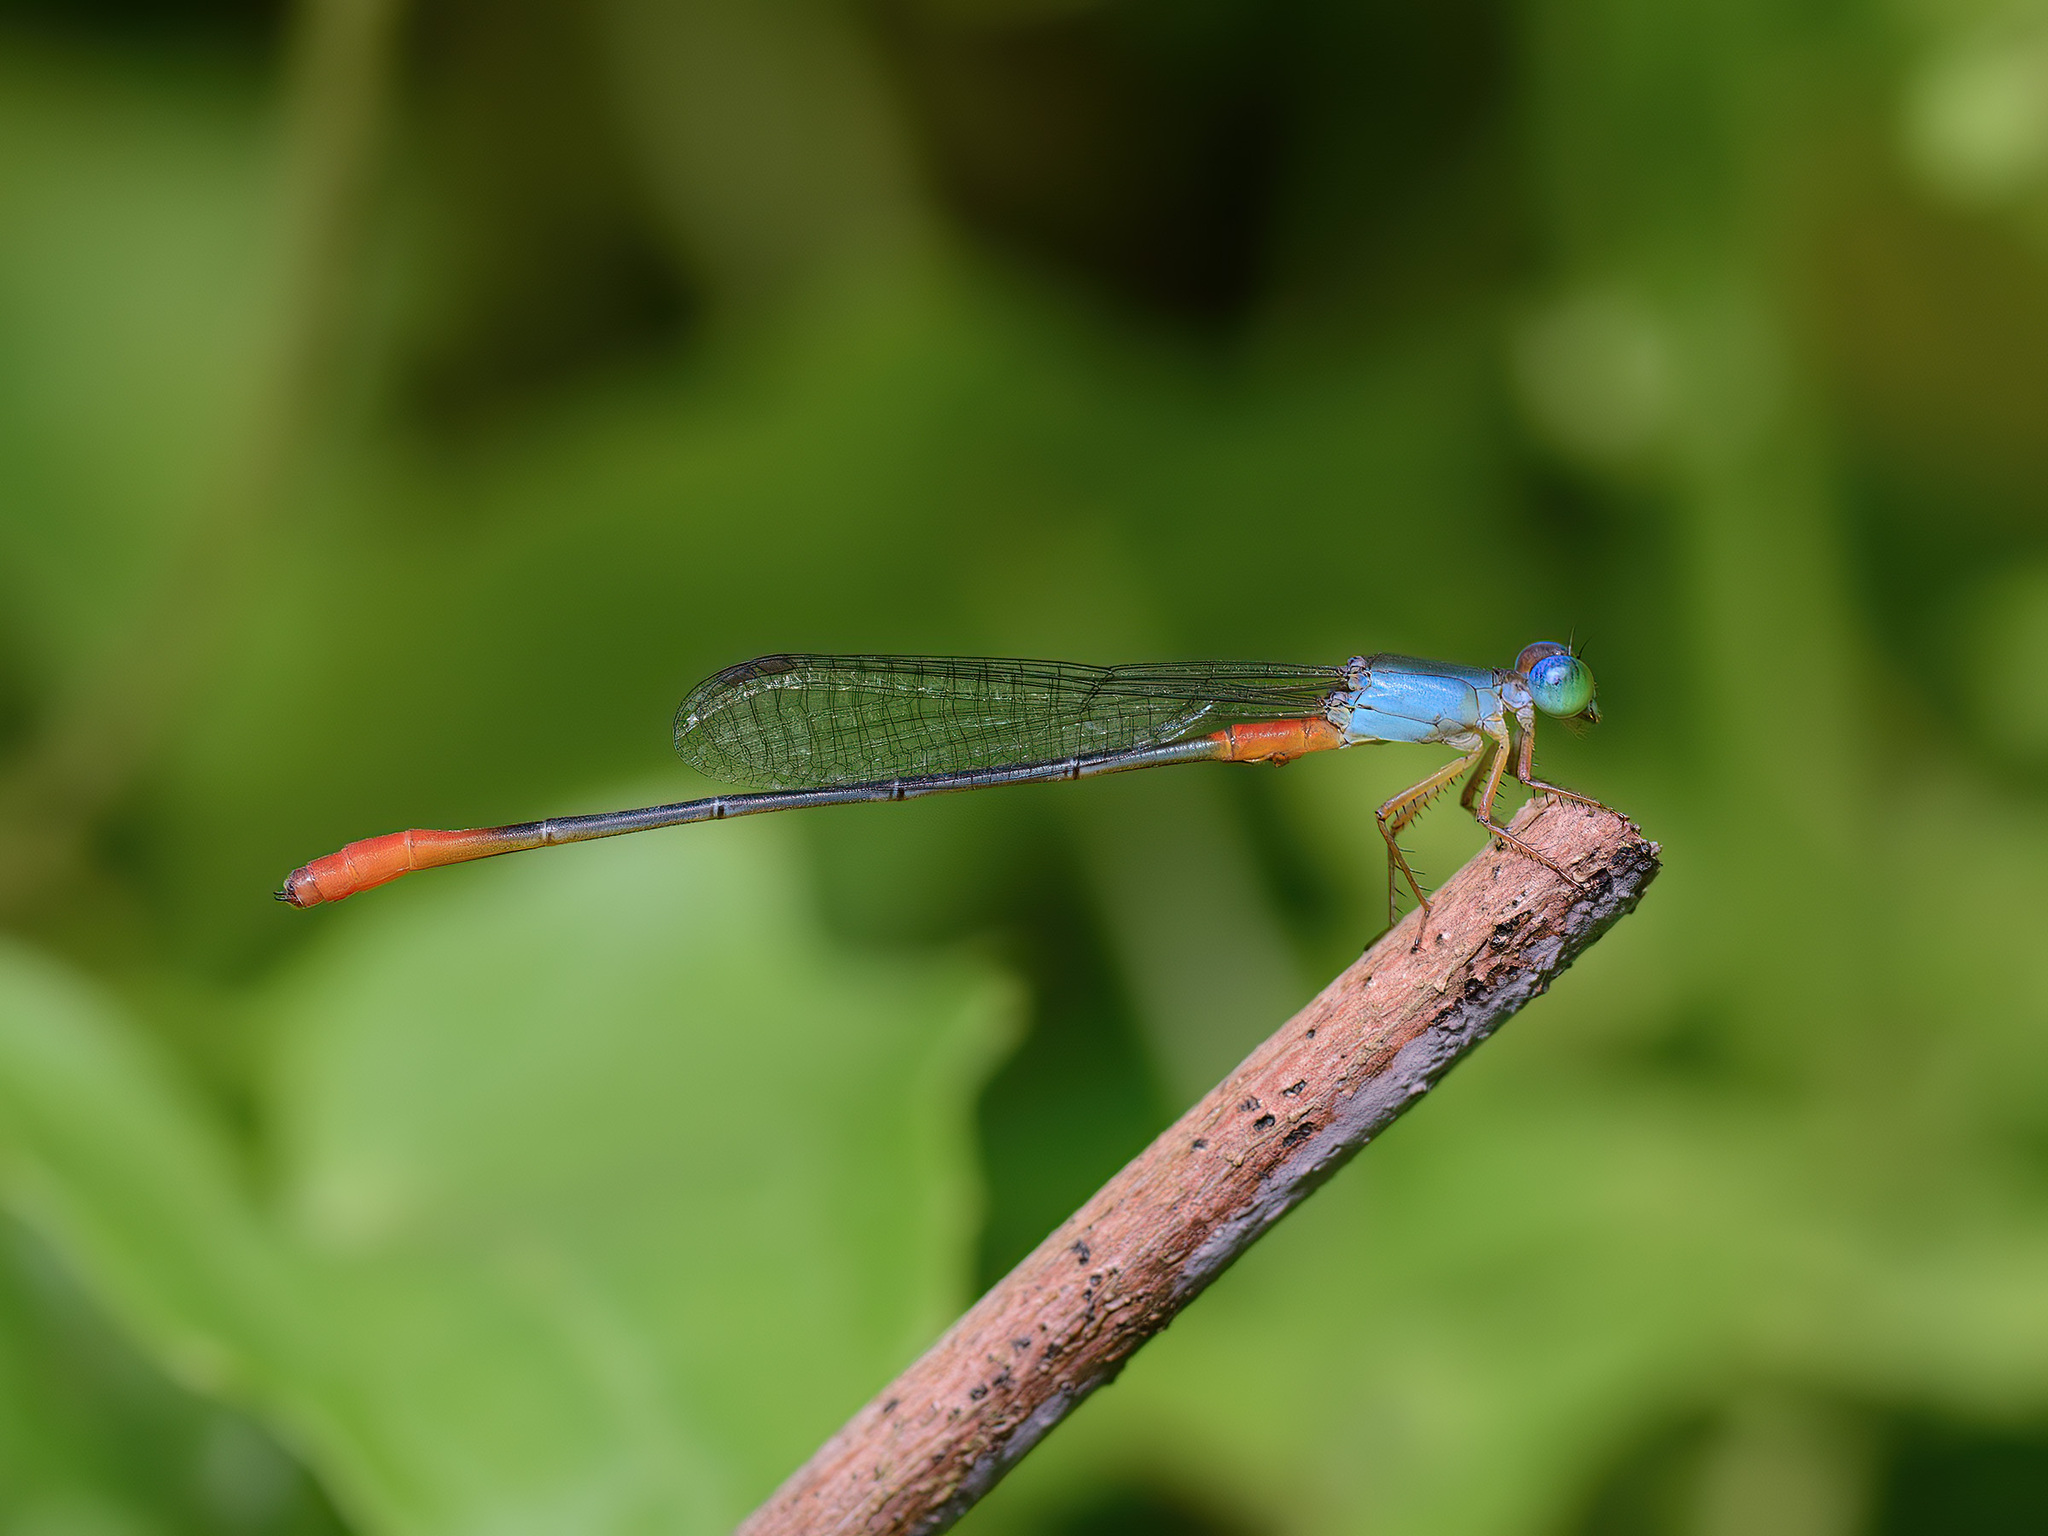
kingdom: Animalia
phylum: Arthropoda
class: Insecta
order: Odonata
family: Coenagrionidae
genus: Ceriagrion
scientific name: Ceriagrion cerinorubellum
